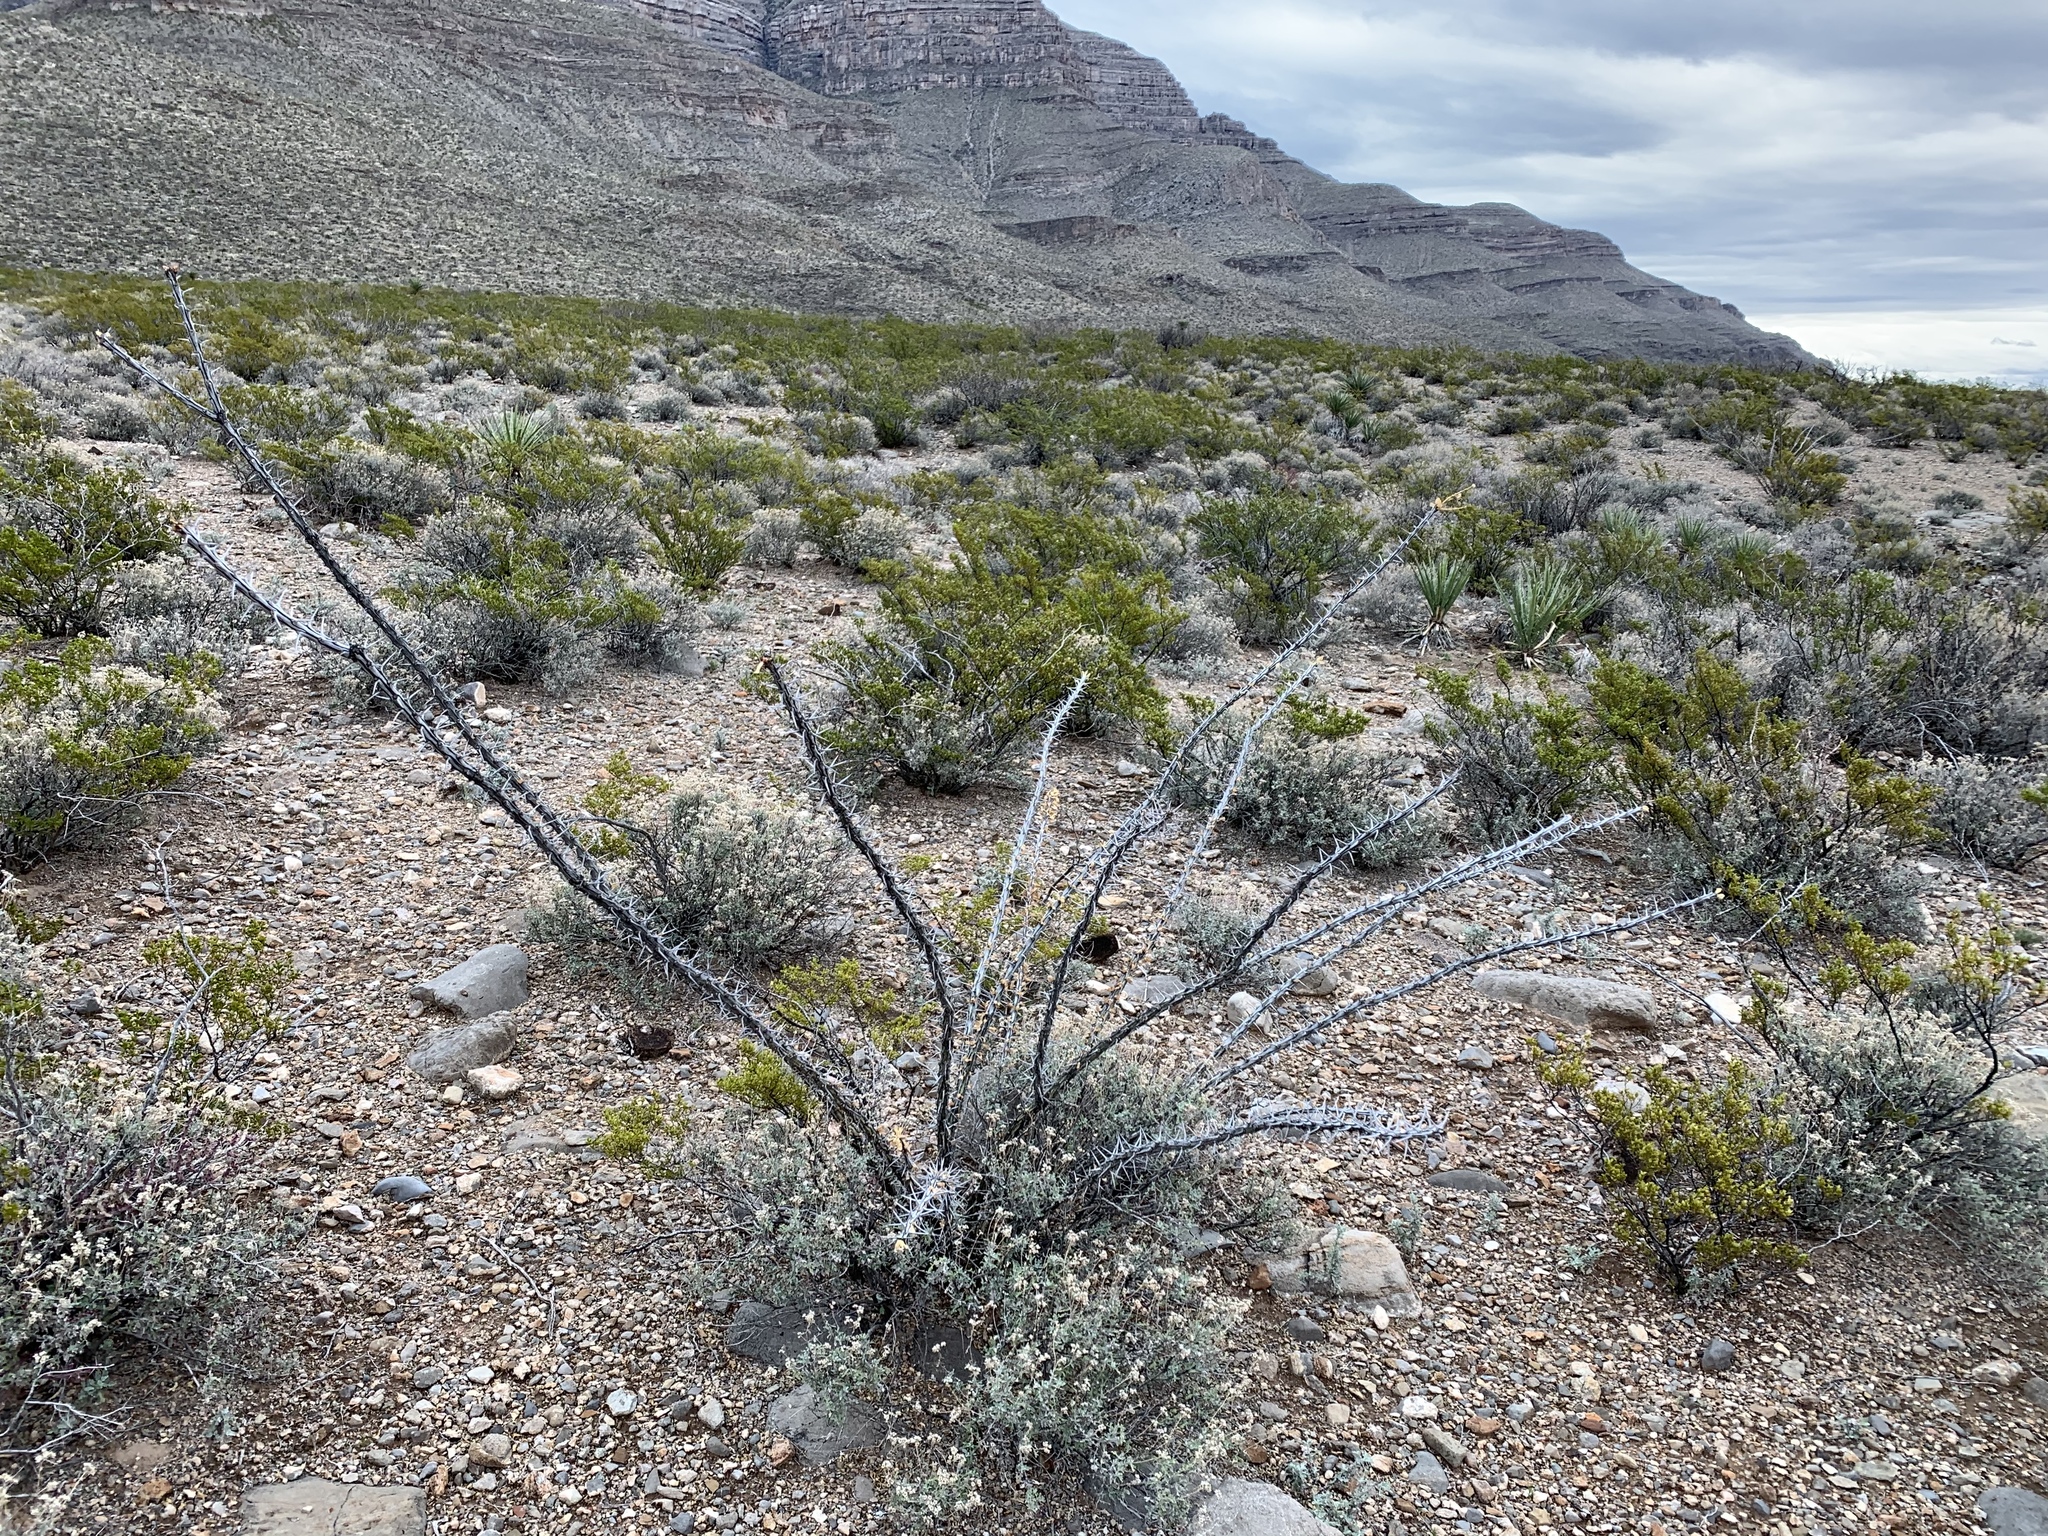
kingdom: Plantae
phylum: Tracheophyta
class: Magnoliopsida
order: Ericales
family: Fouquieriaceae
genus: Fouquieria
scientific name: Fouquieria splendens
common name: Vine-cactus
